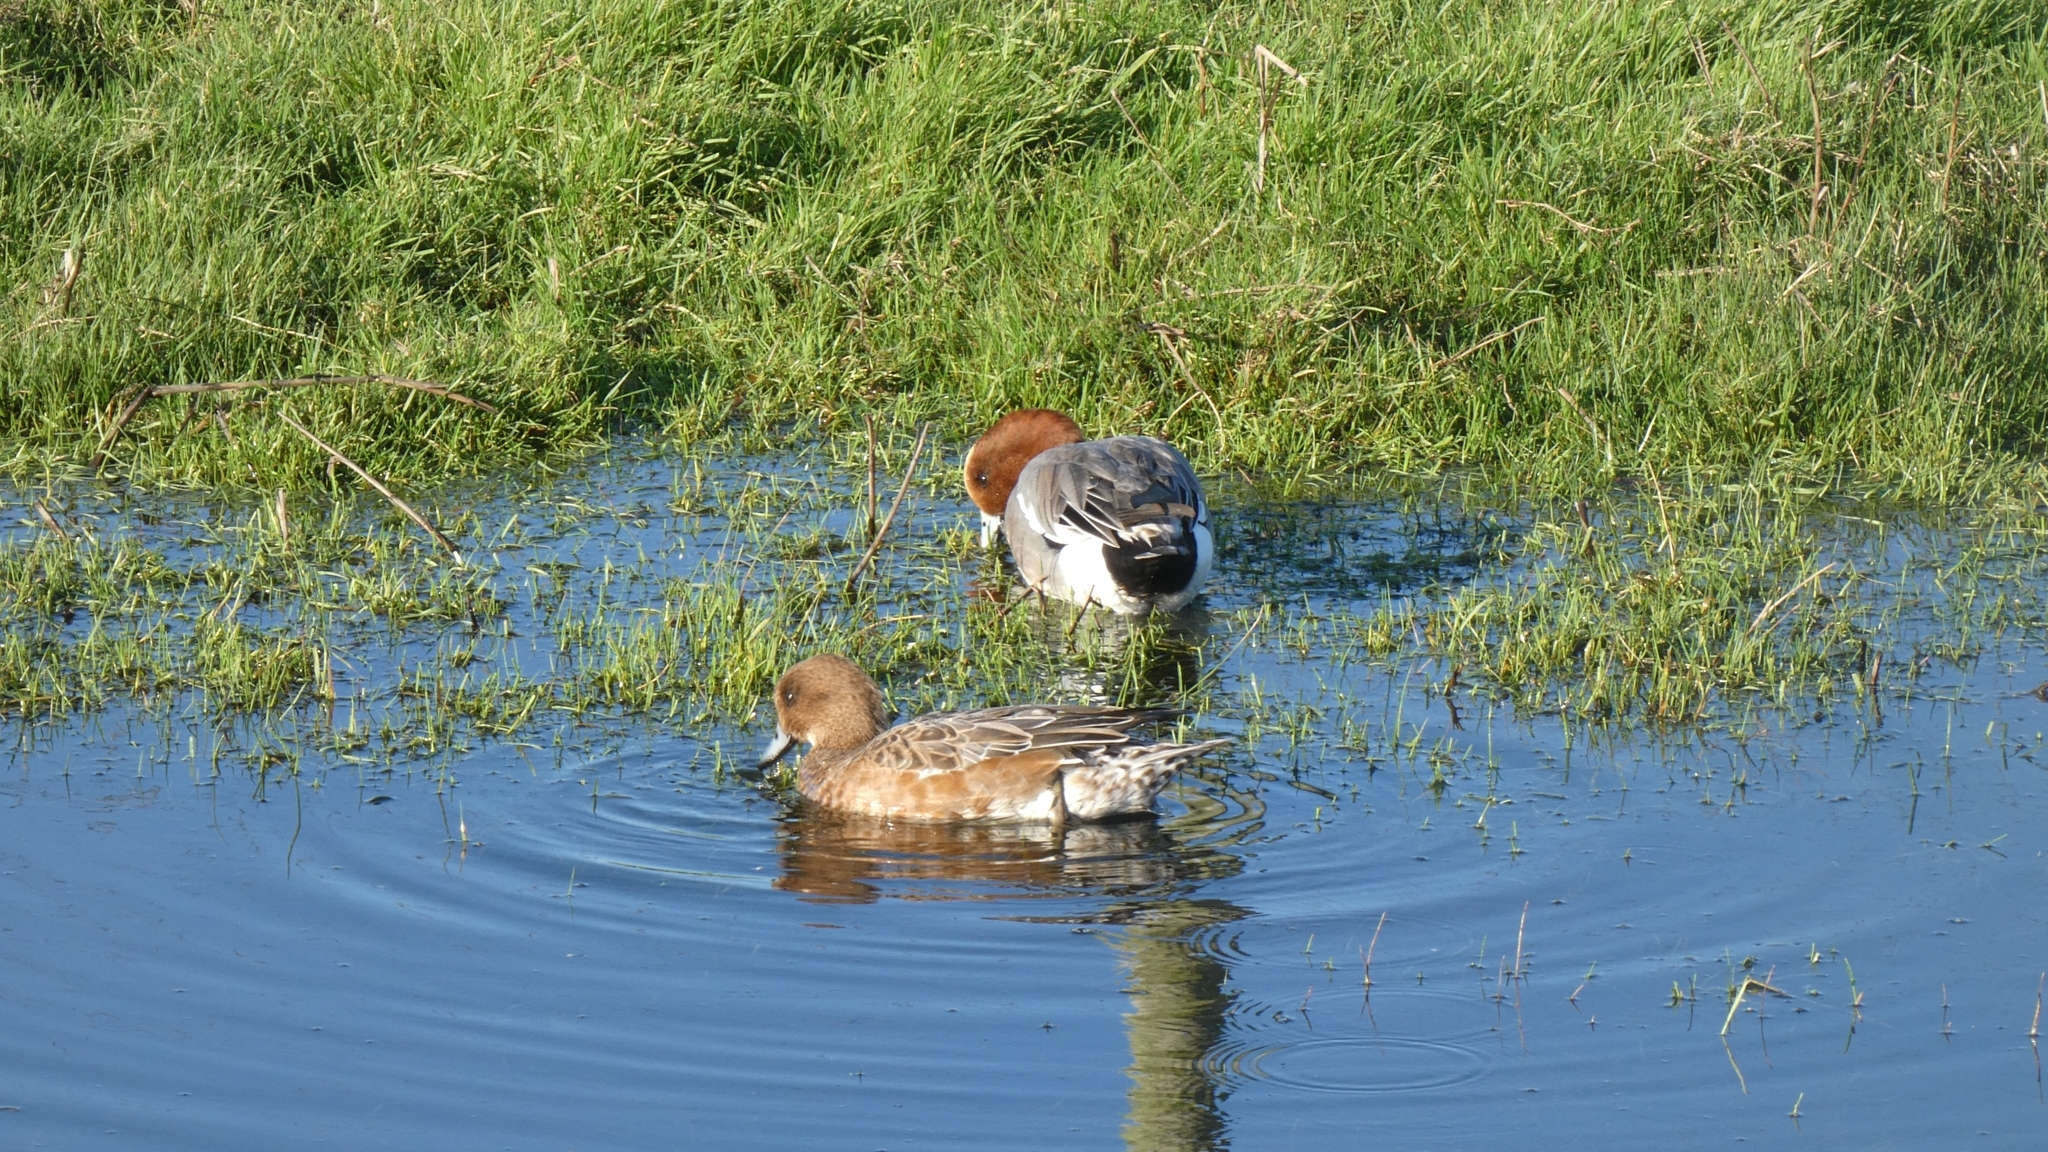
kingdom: Animalia
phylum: Chordata
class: Aves
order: Anseriformes
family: Anatidae
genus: Mareca
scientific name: Mareca penelope
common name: Eurasian wigeon
